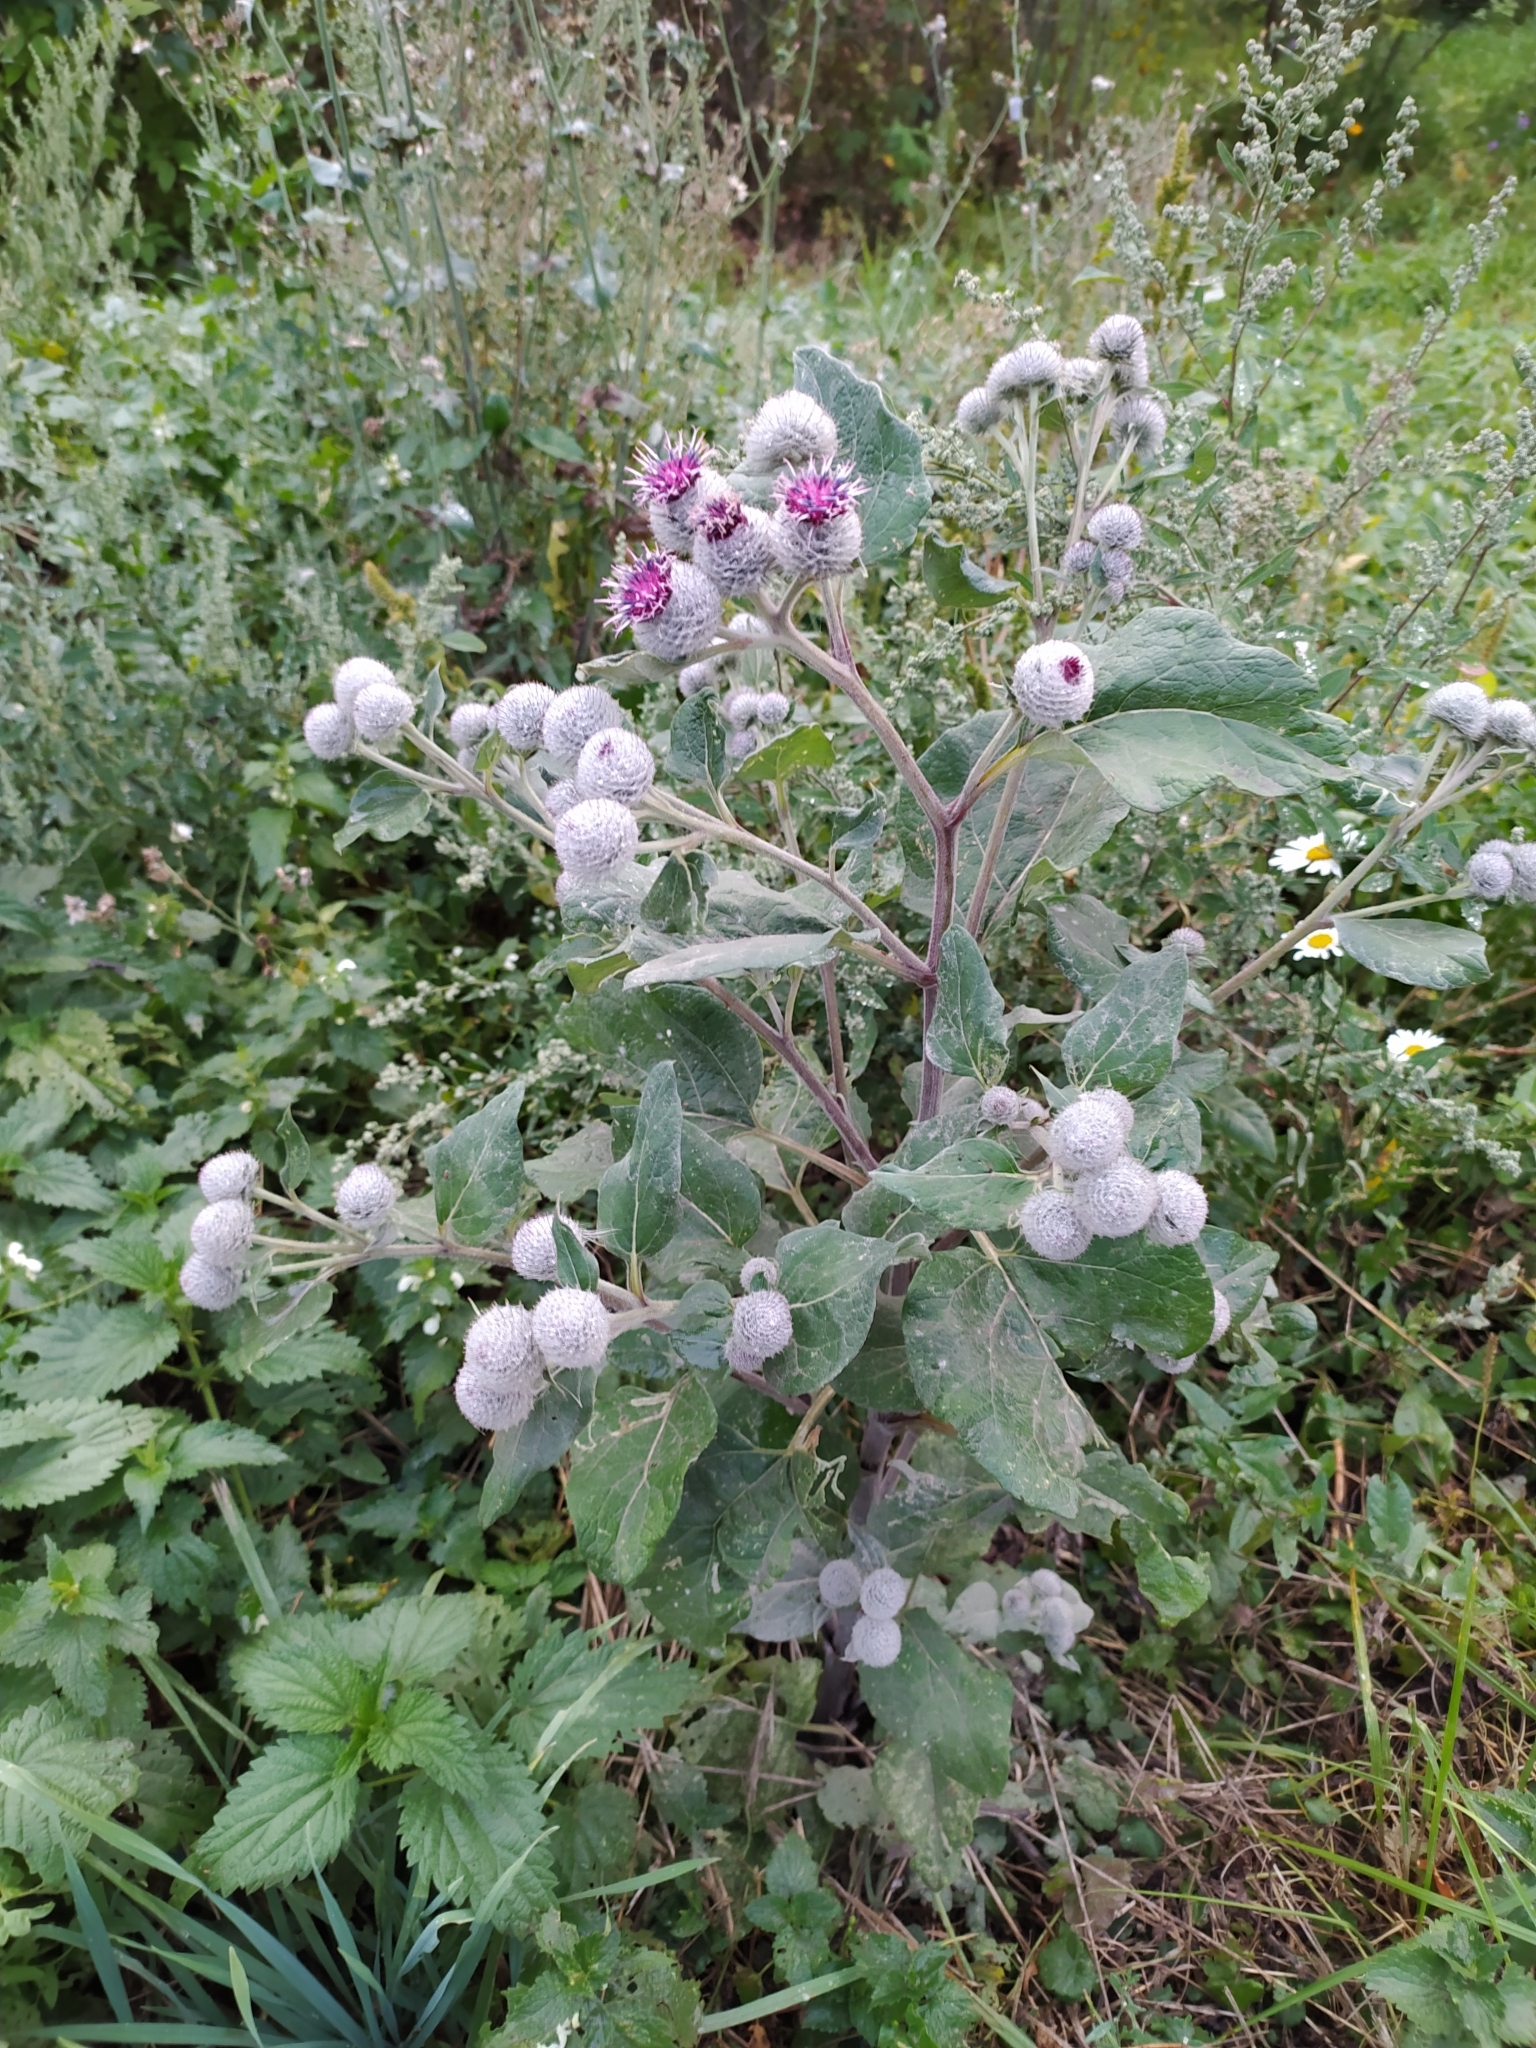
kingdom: Plantae
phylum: Tracheophyta
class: Magnoliopsida
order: Asterales
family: Asteraceae
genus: Arctium
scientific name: Arctium tomentosum
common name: Woolly burdock
